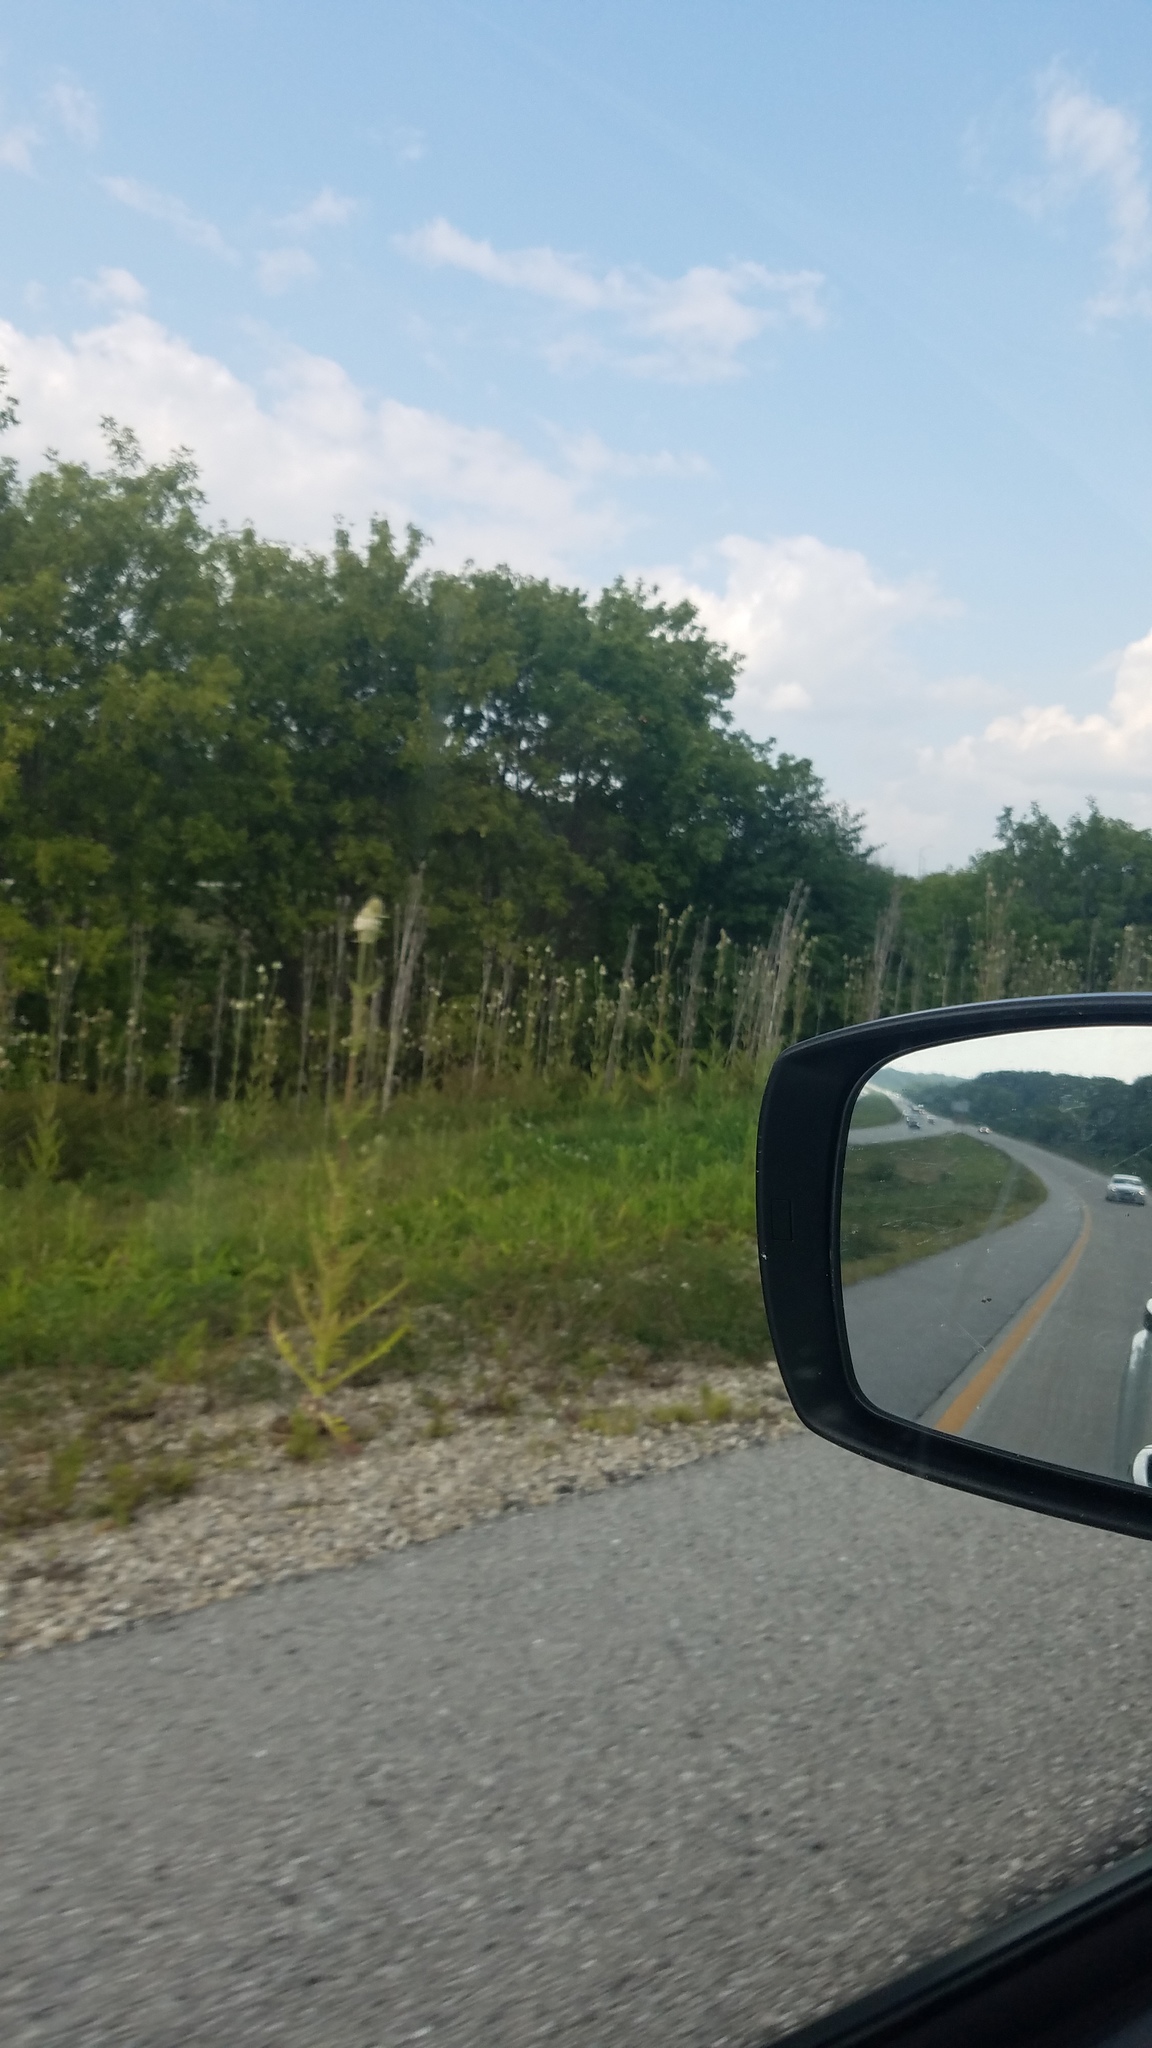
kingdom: Plantae
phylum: Tracheophyta
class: Magnoliopsida
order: Dipsacales
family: Caprifoliaceae
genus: Dipsacus
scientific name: Dipsacus laciniatus
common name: Cut-leaved teasel
